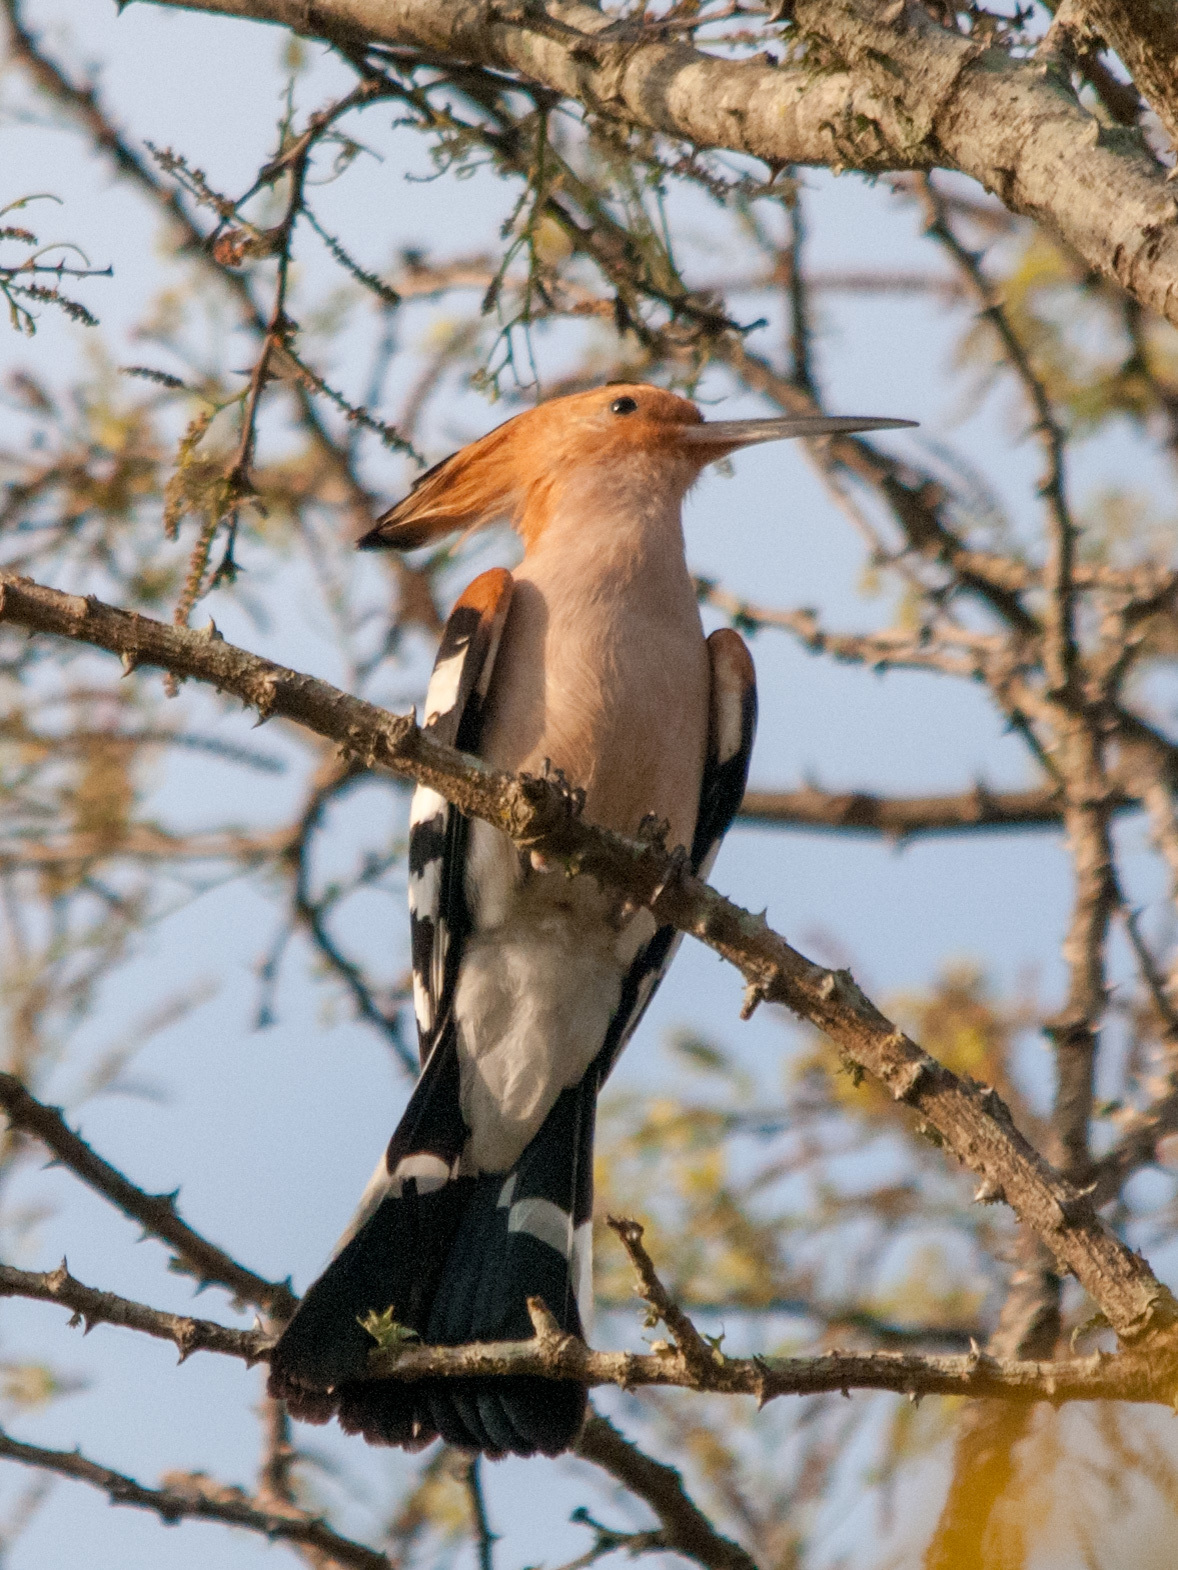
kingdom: Animalia
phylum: Chordata
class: Aves
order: Bucerotiformes
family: Upupidae
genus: Upupa
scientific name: Upupa marginata
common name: Madagascar hoopoe
